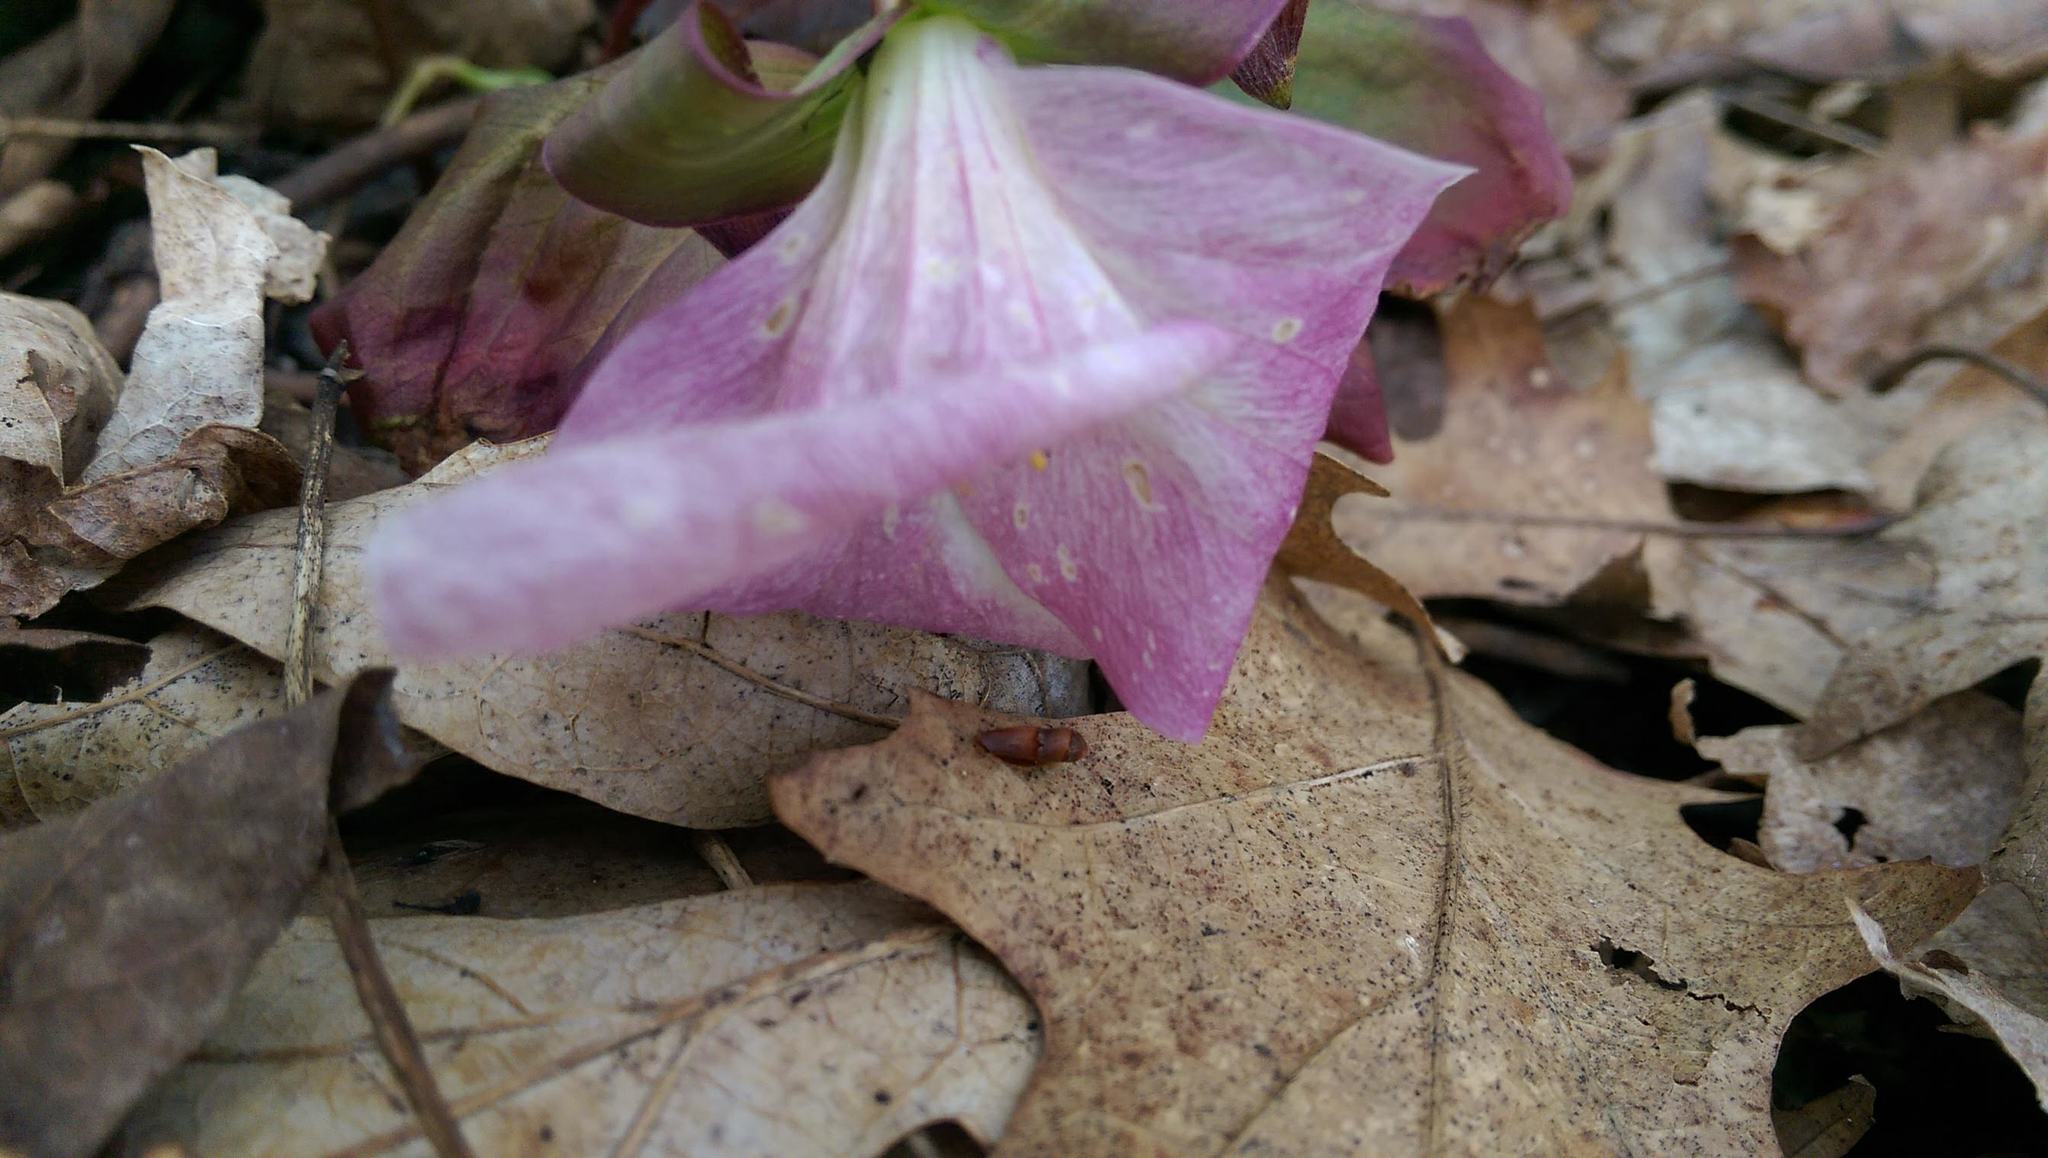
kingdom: Plantae
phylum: Tracheophyta
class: Liliopsida
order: Liliales
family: Melanthiaceae
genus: Trillium
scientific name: Trillium grandiflorum
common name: Great white trillium
